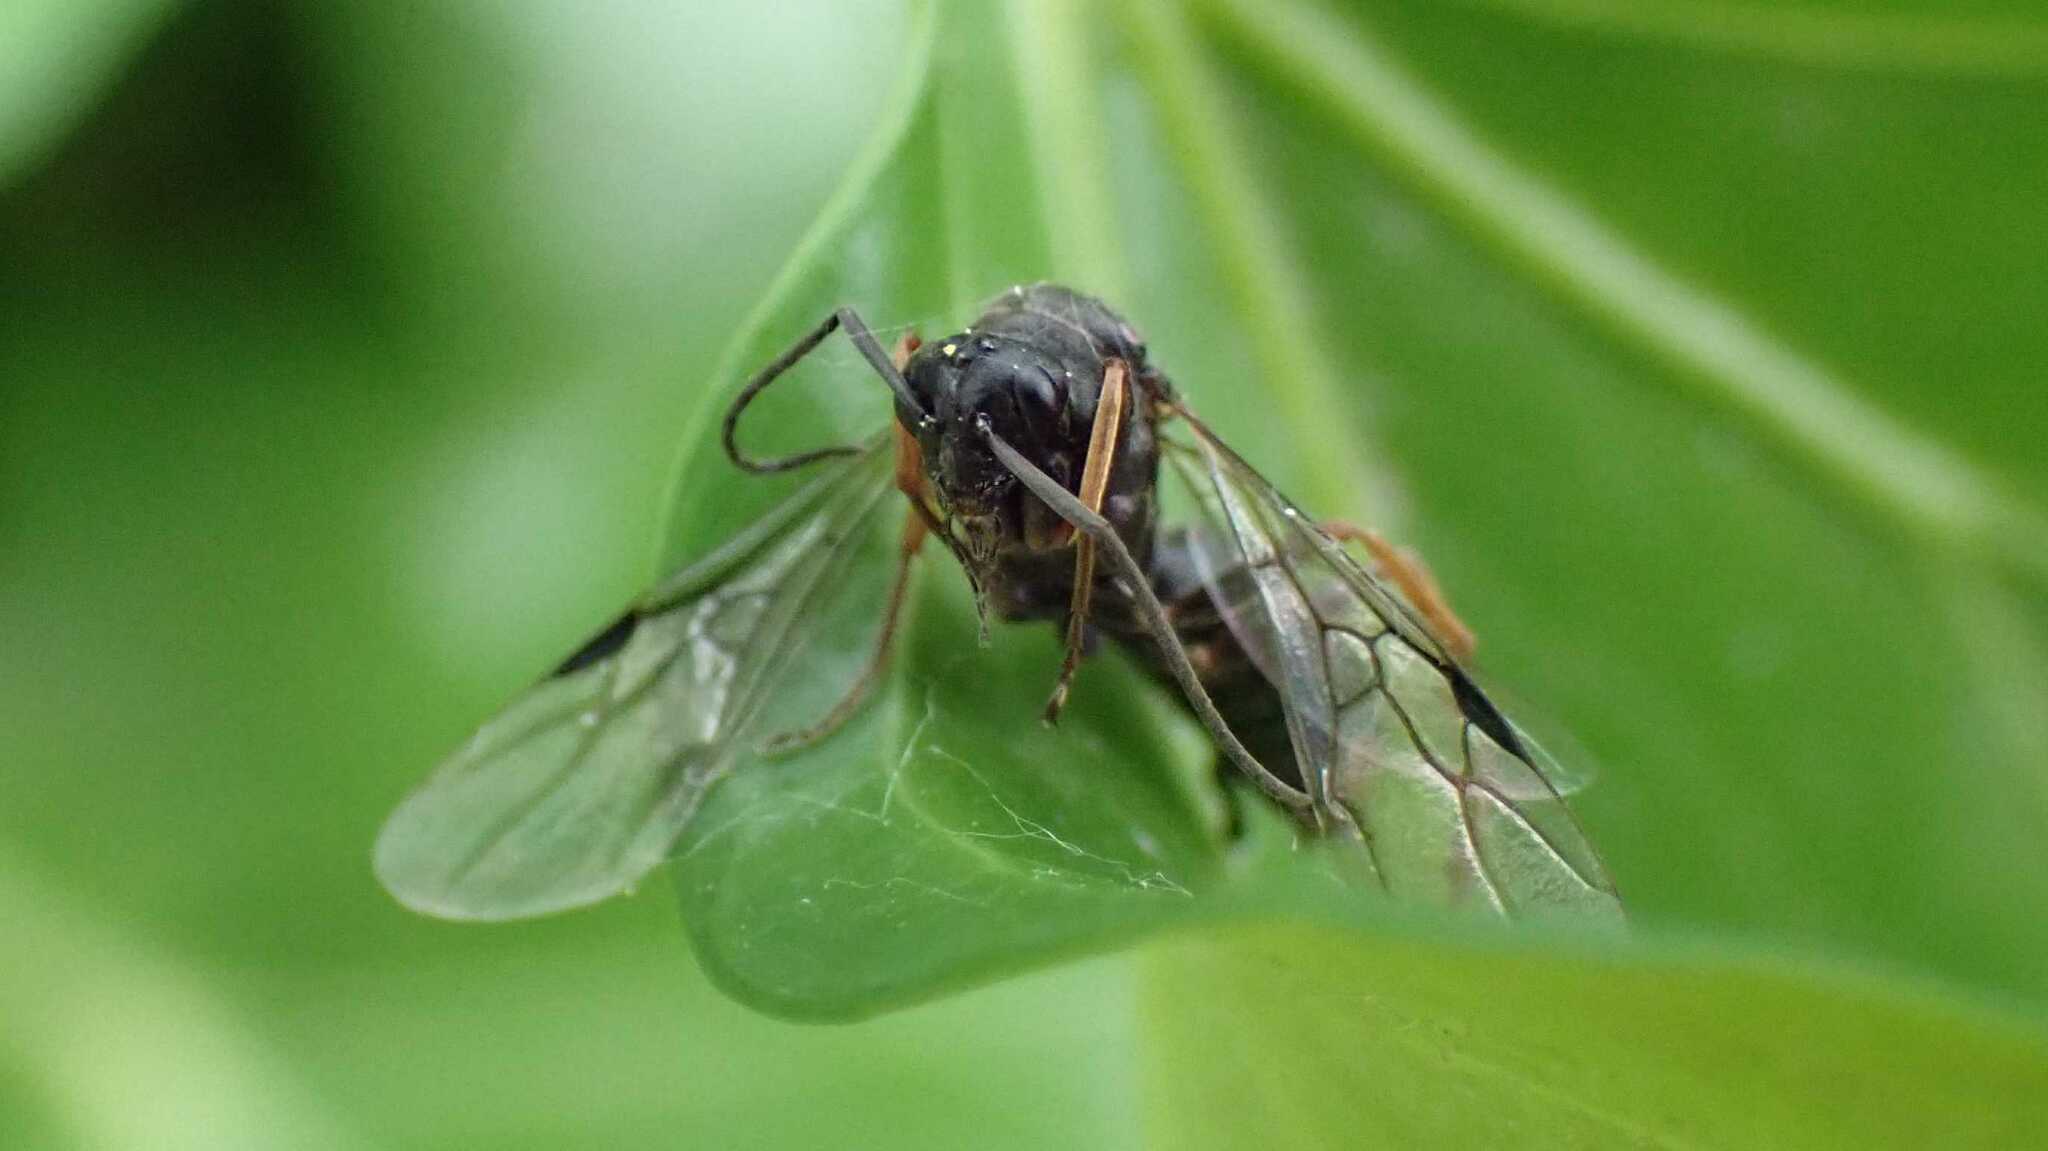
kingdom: Animalia
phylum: Arthropoda
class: Insecta
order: Hymenoptera
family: Formicidae
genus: Formica
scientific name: Formica
